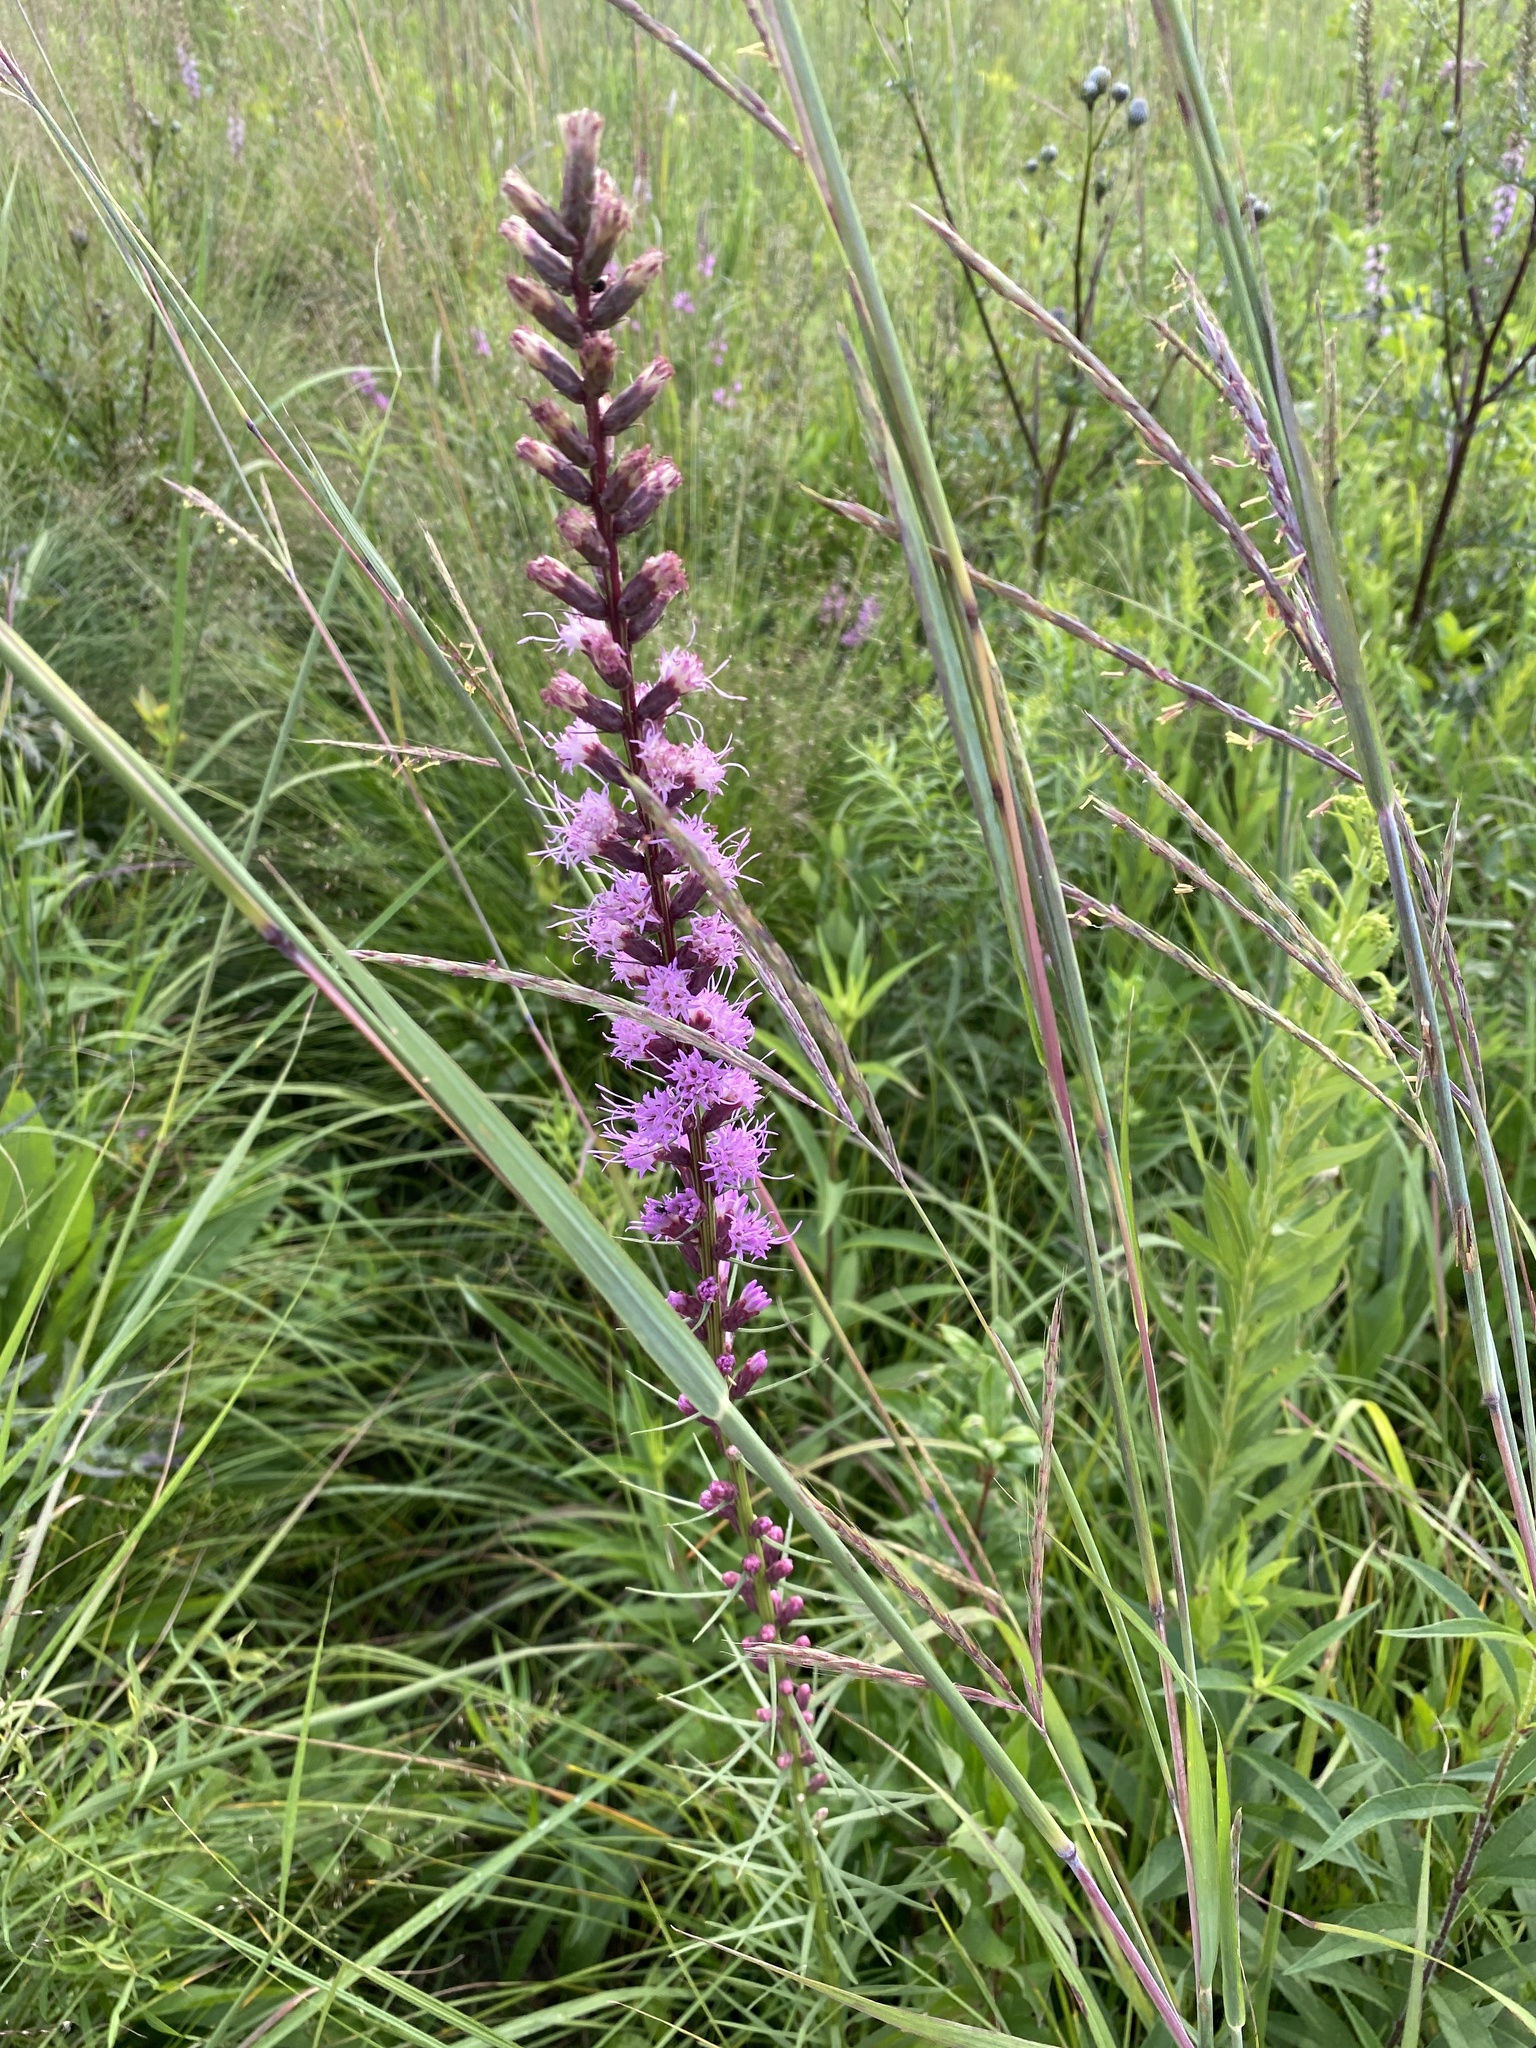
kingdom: Plantae
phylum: Tracheophyta
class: Magnoliopsida
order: Asterales
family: Asteraceae
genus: Liatris
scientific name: Liatris spicata
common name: Florist gayfeather
